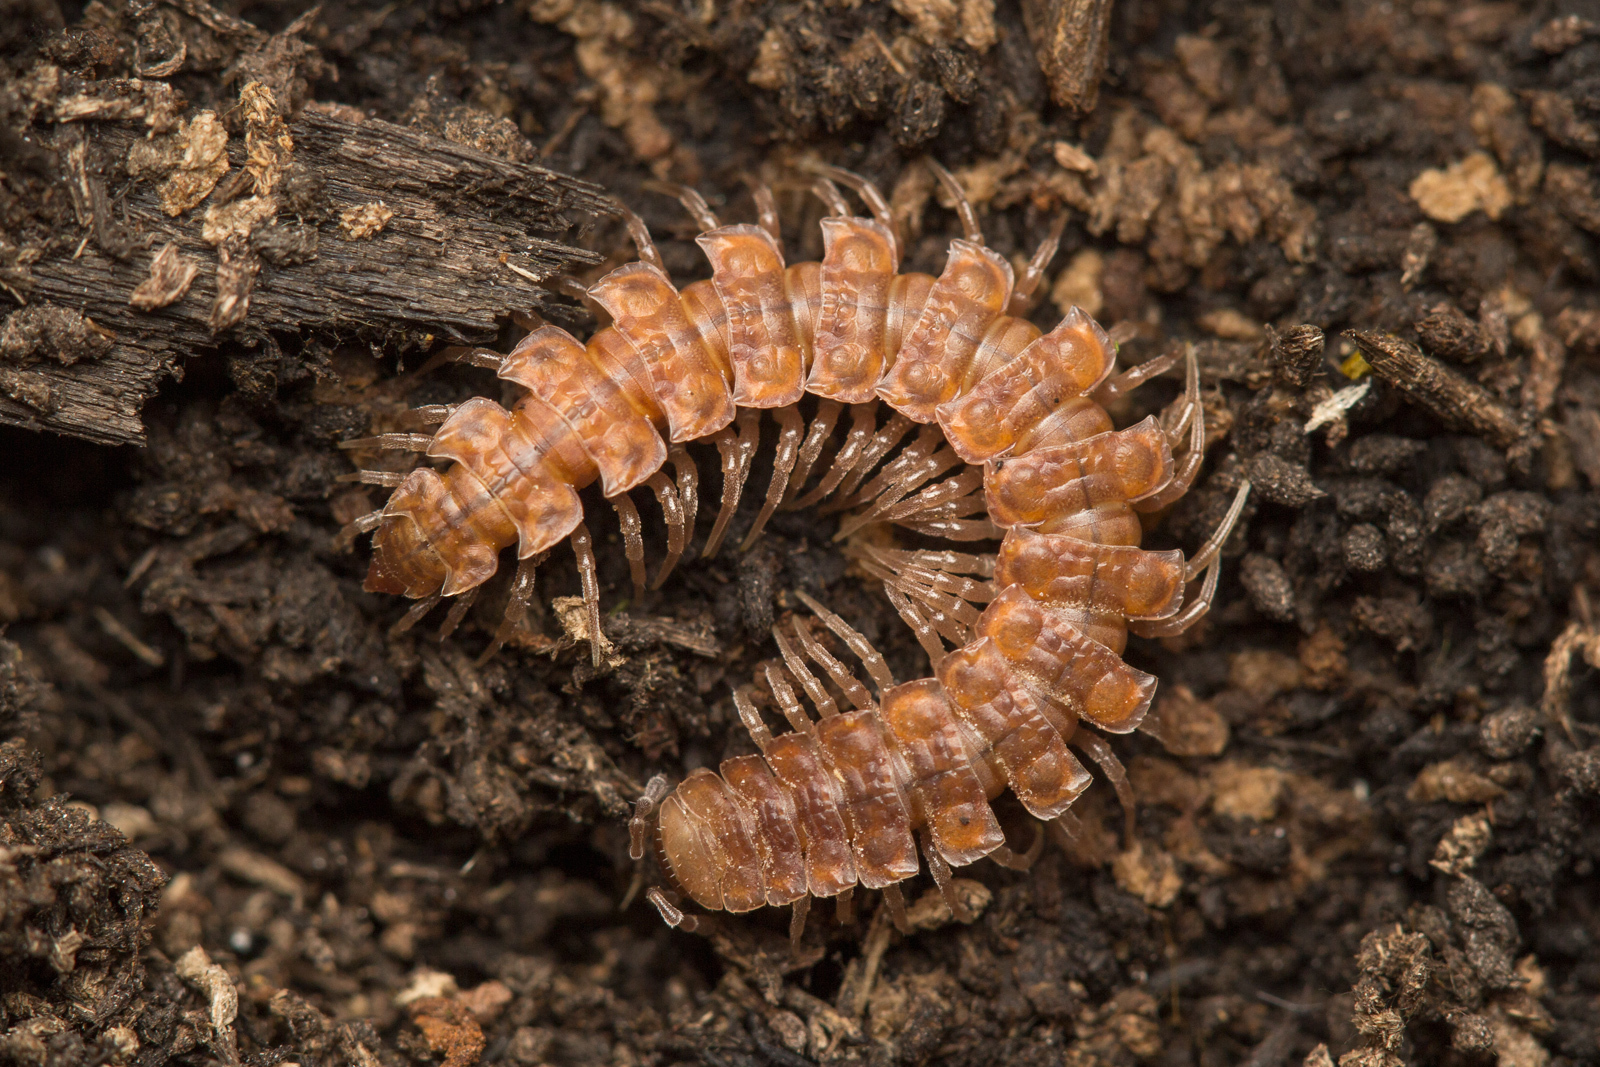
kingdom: Animalia
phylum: Arthropoda
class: Diplopoda
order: Polydesmida
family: Polydesmidae
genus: Polydesmus
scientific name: Polydesmus complanatus
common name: Flat-backed millipede
